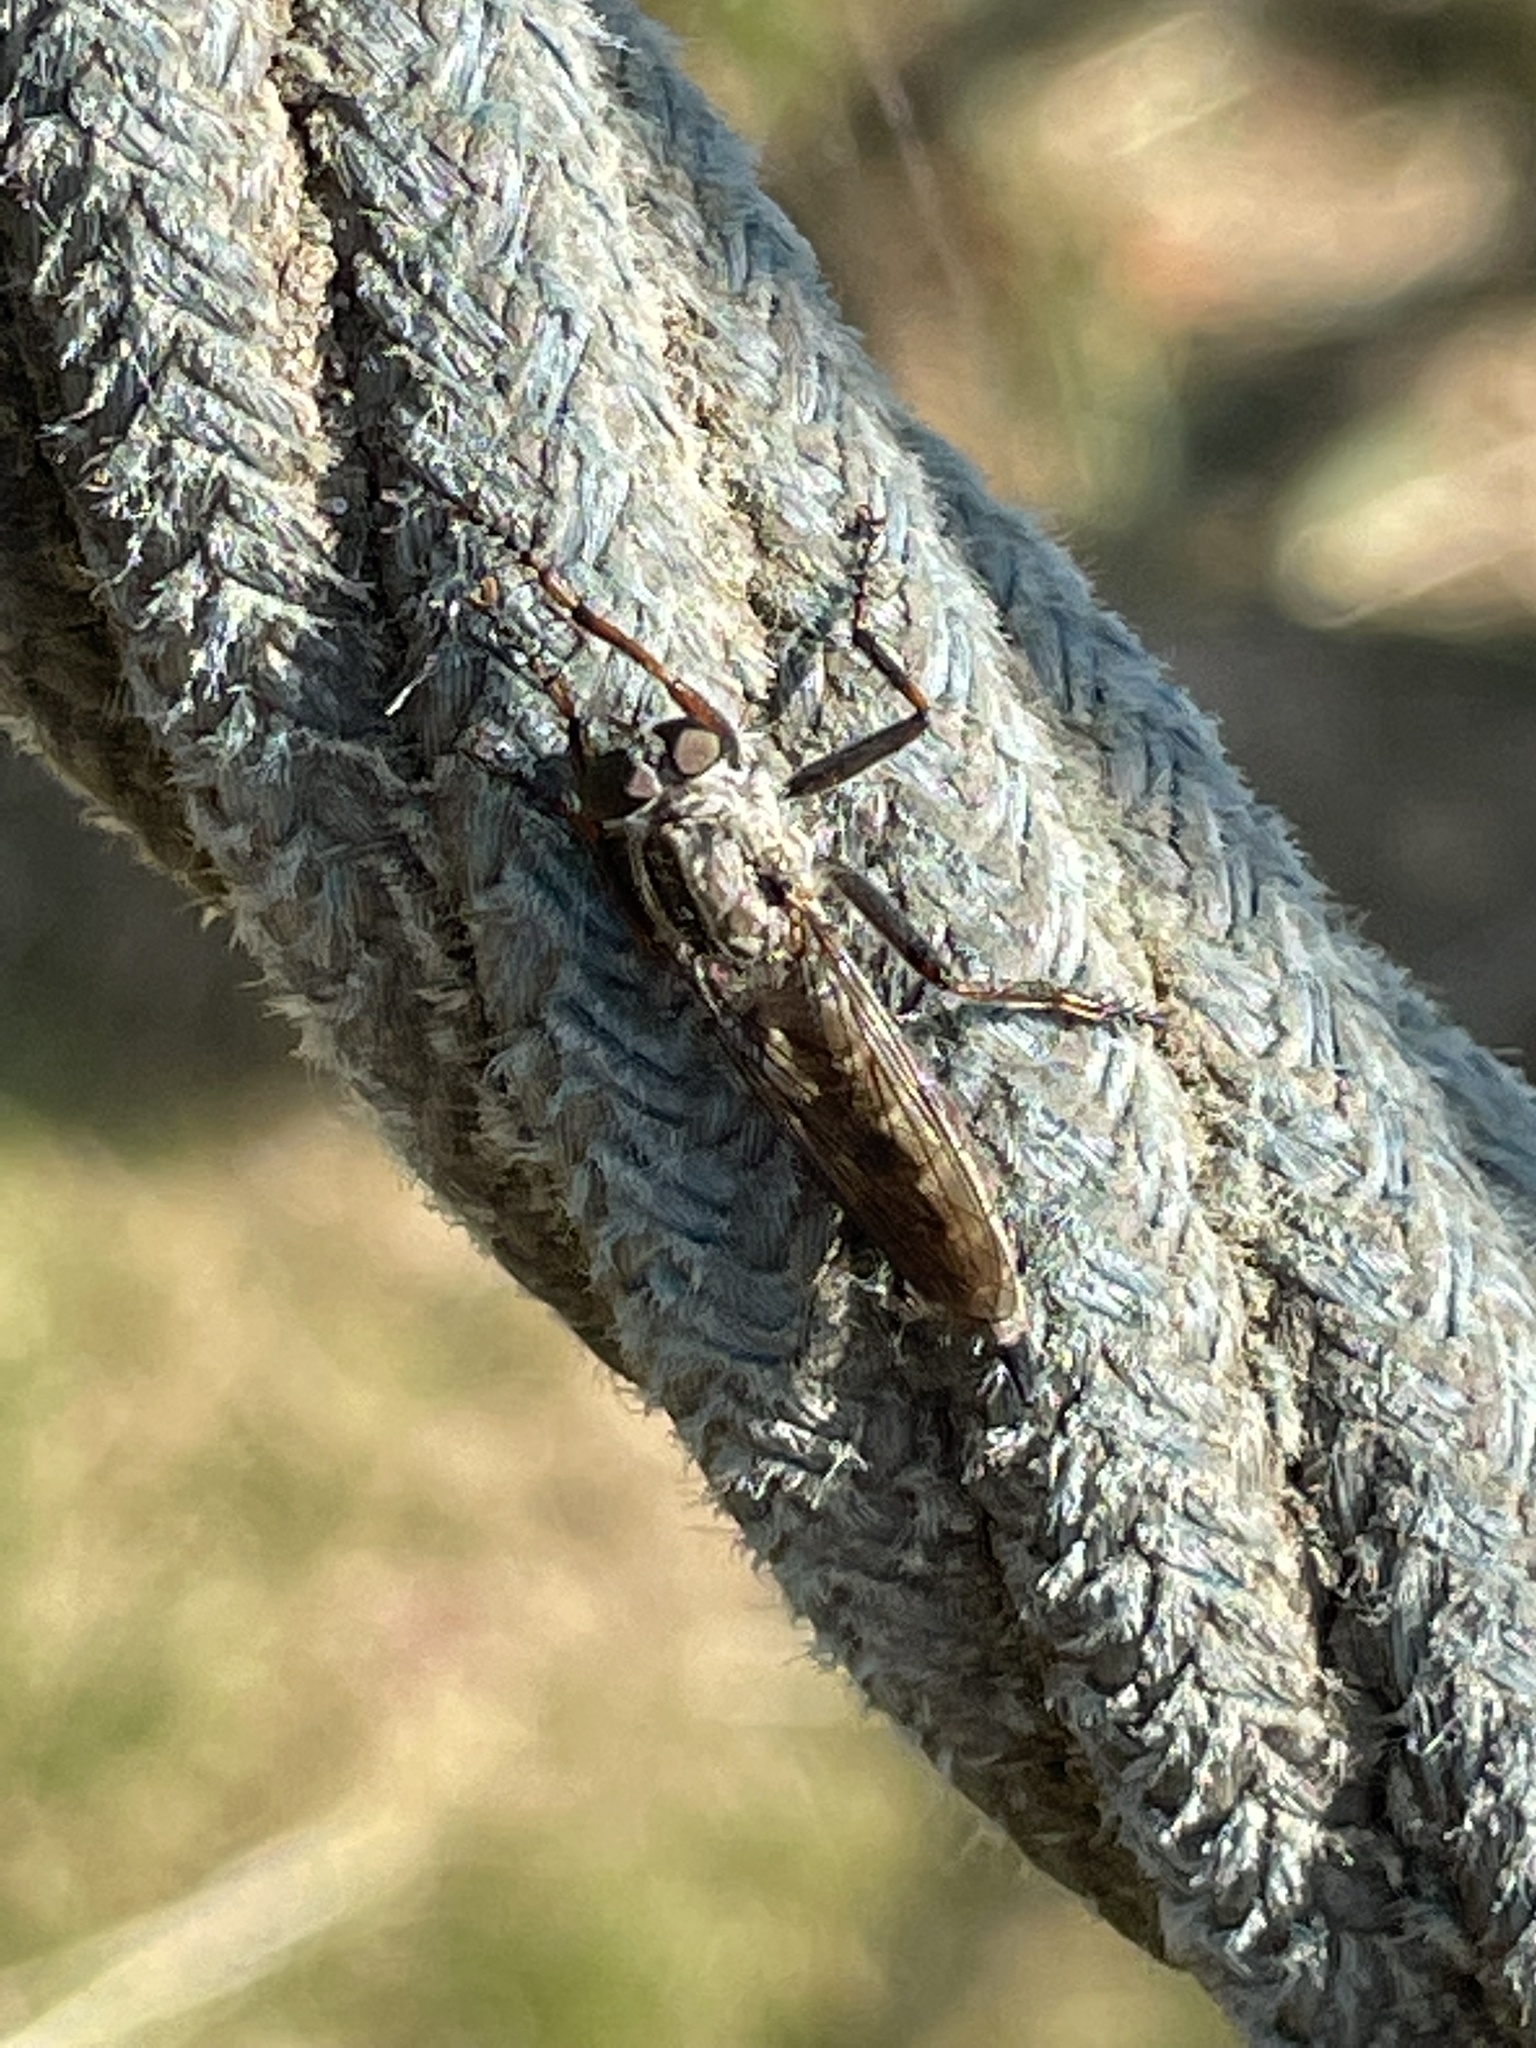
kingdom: Animalia
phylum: Arthropoda
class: Insecta
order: Diptera
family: Asilidae
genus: Machimus
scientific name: Machimus atricapillus
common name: Kite-tailed robberfly
